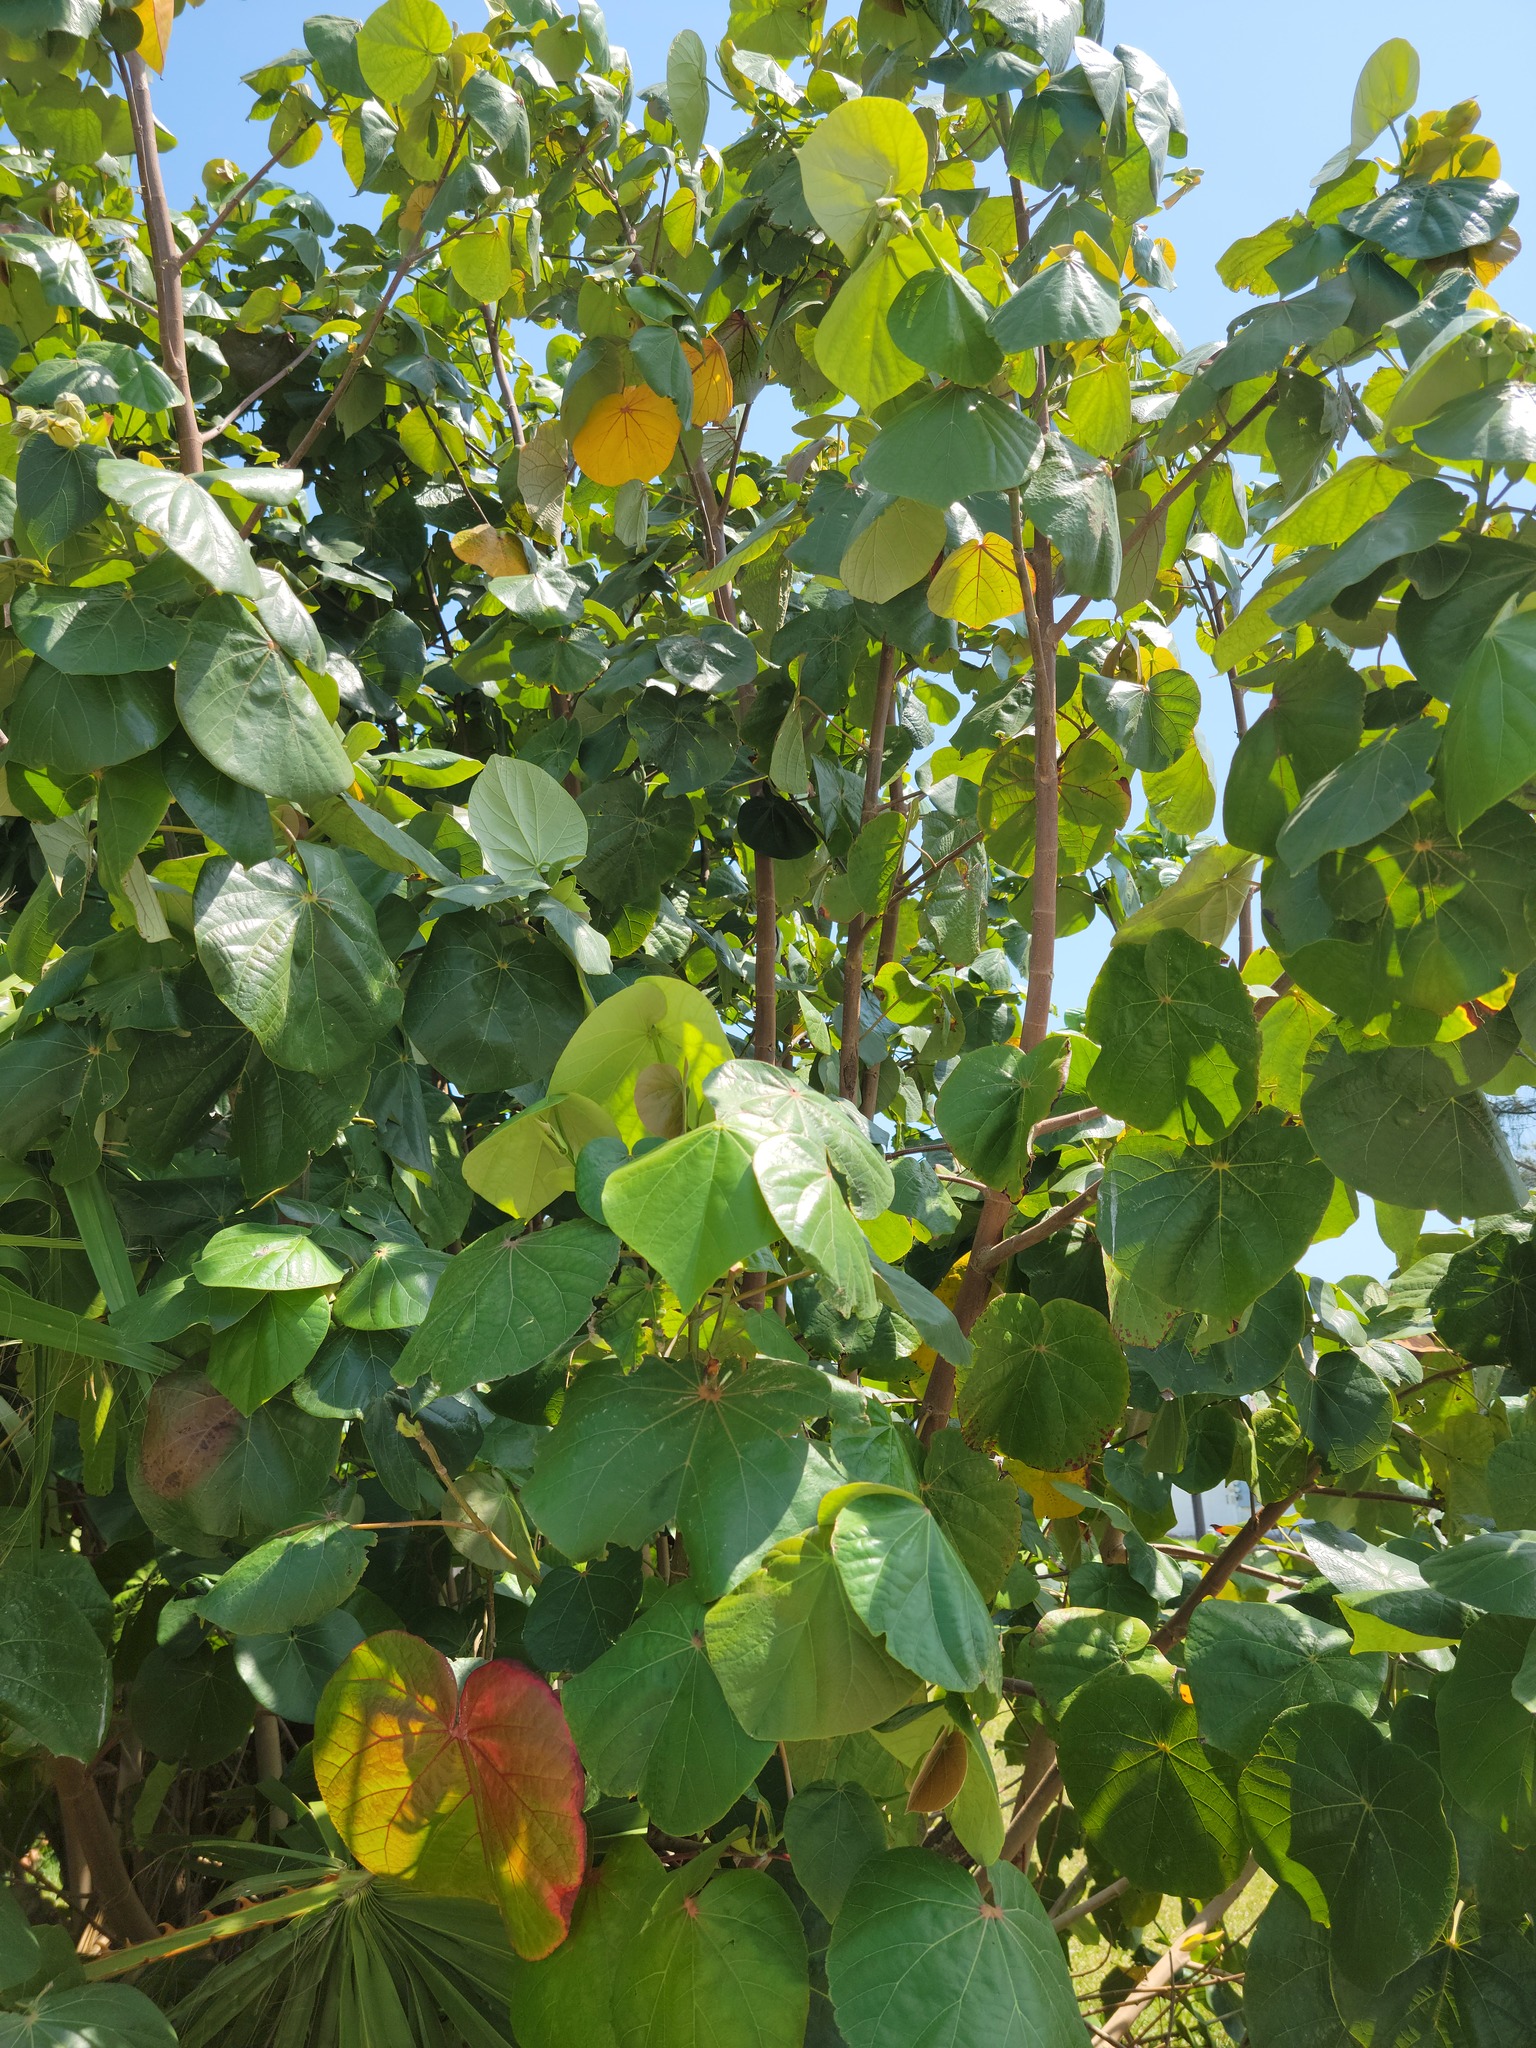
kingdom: Plantae
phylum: Tracheophyta
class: Magnoliopsida
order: Malvales
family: Malvaceae
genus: Talipariti
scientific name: Talipariti tiliaceum
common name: Sea hibiscus
